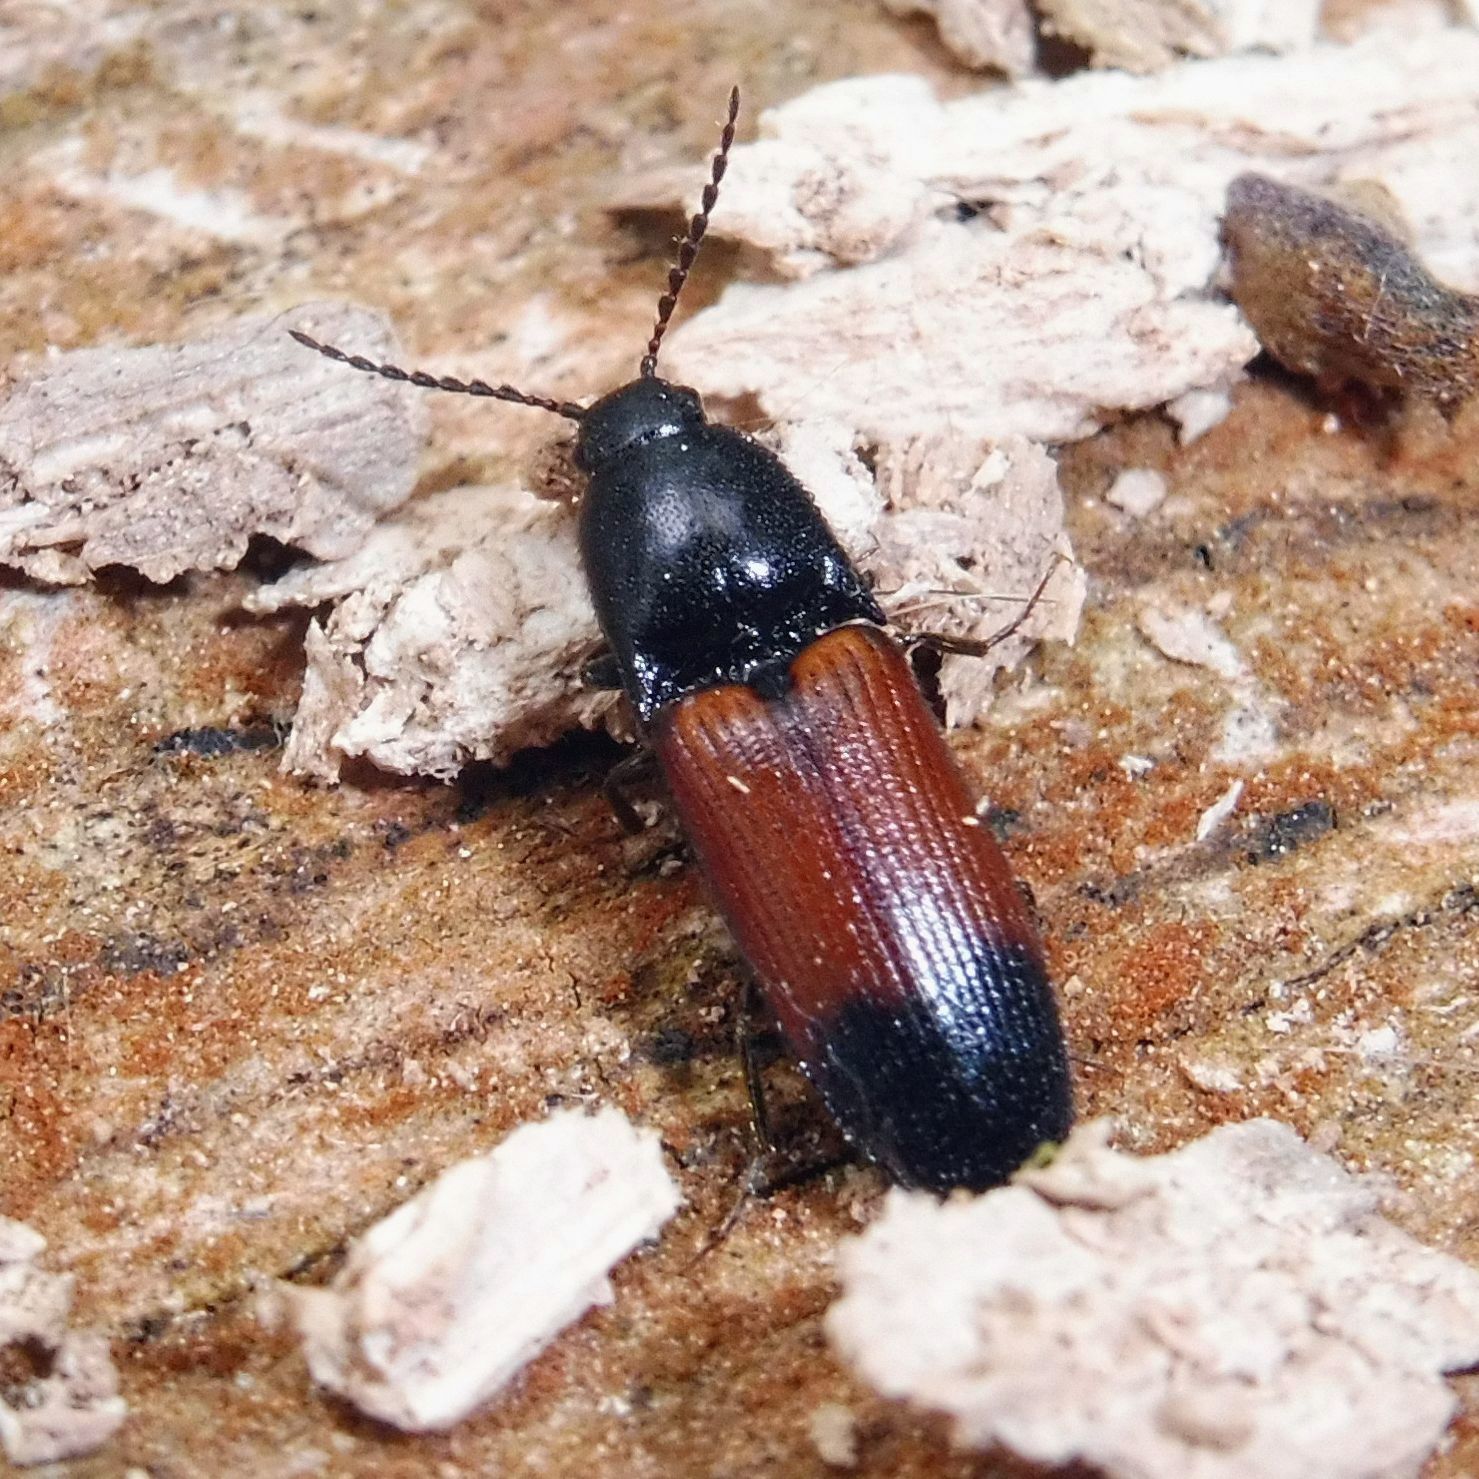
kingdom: Animalia
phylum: Arthropoda
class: Insecta
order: Coleoptera
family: Elateridae
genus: Ampedus
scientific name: Ampedus balteatus
